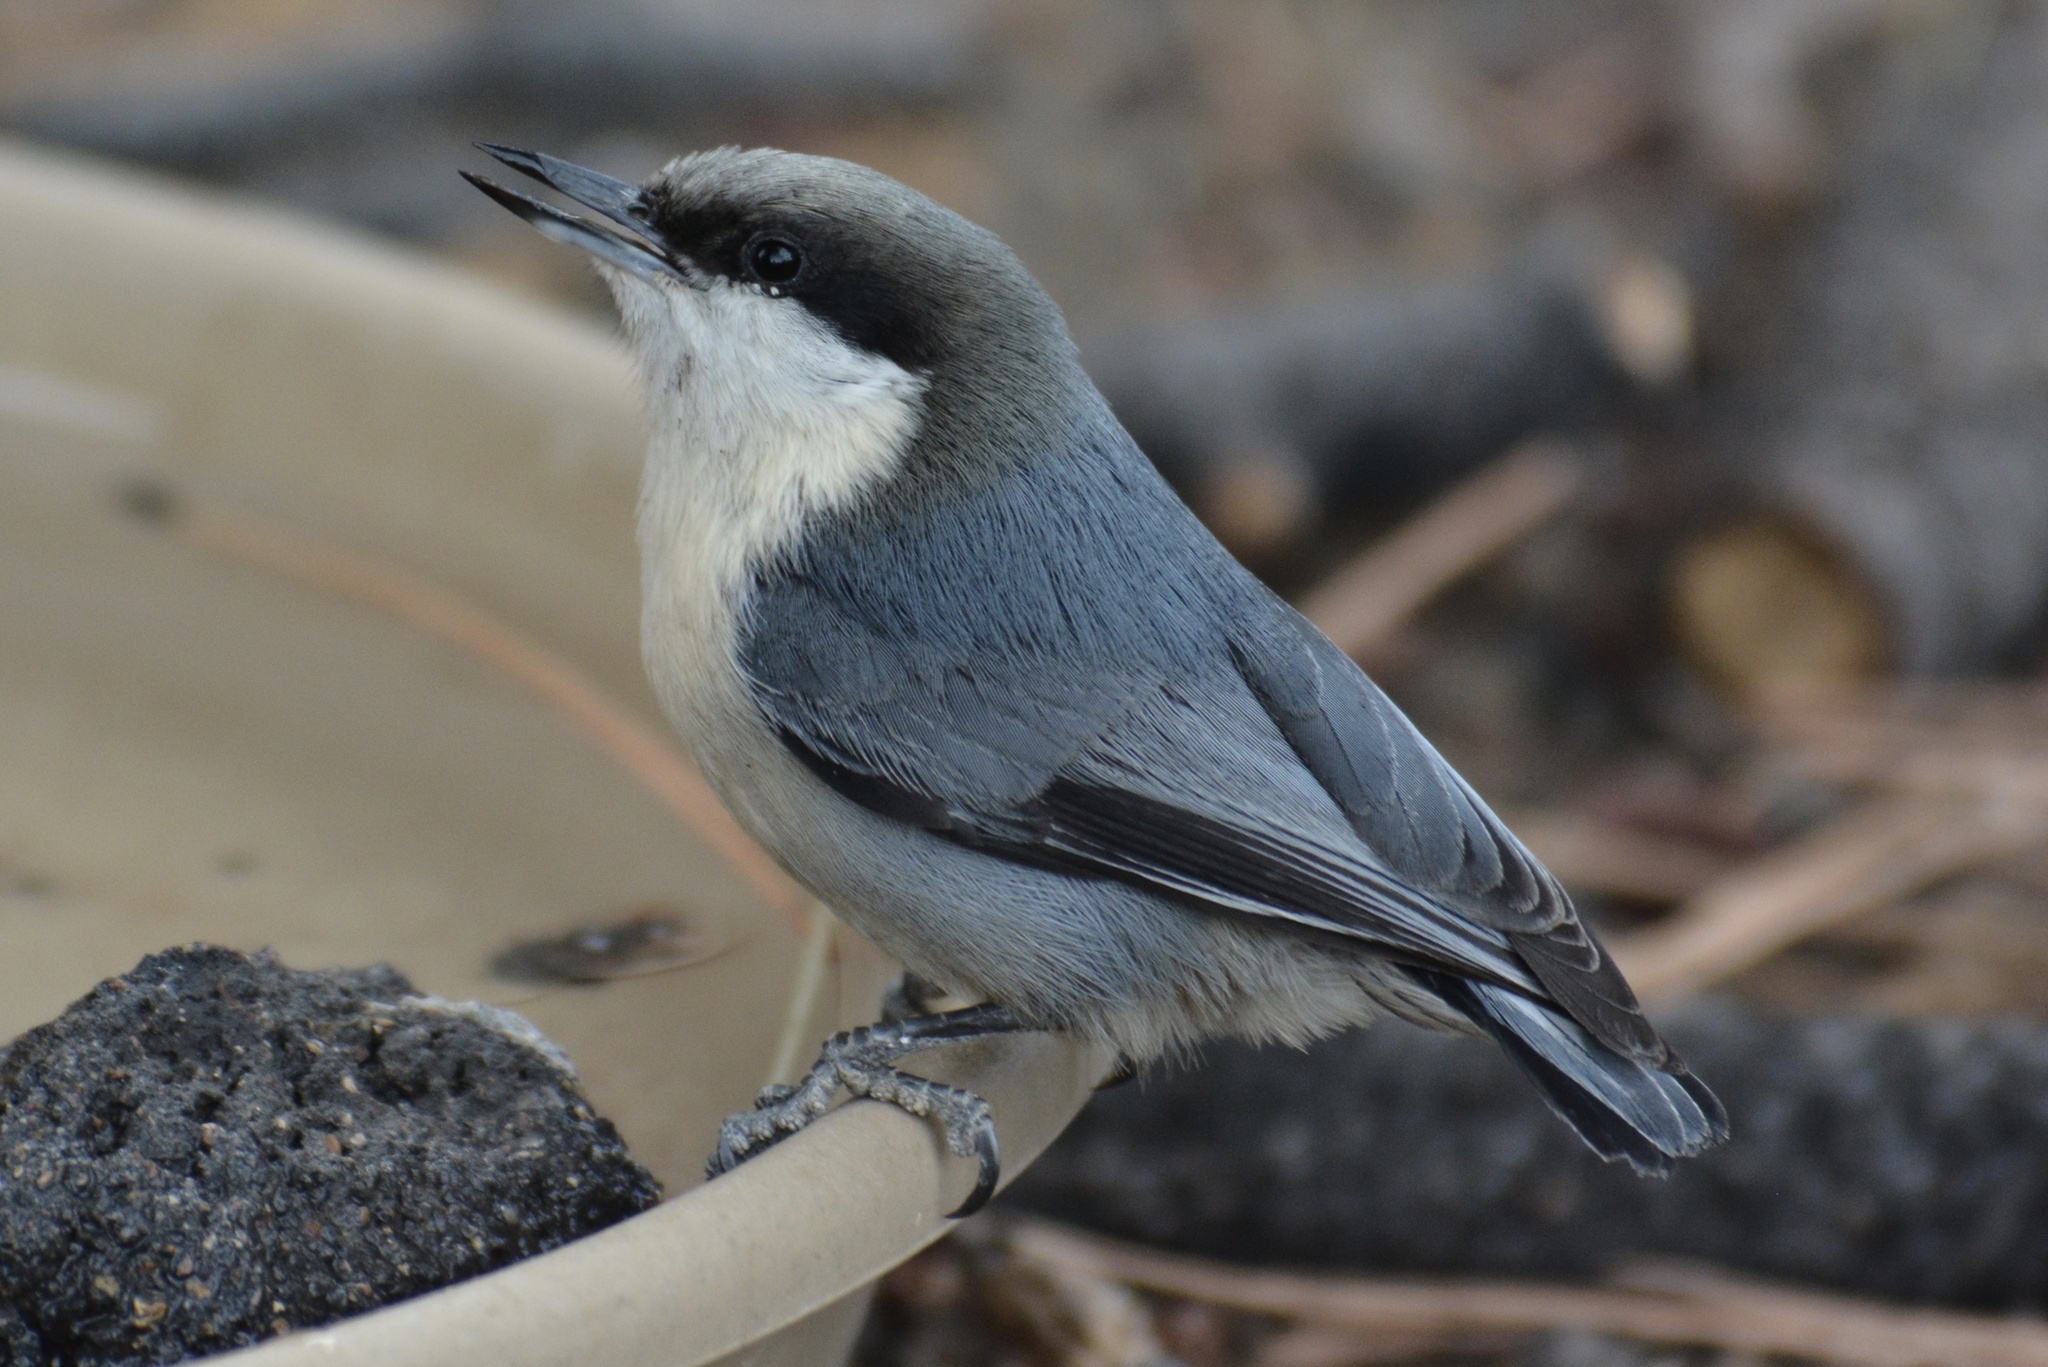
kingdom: Animalia
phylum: Chordata
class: Aves
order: Passeriformes
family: Sittidae
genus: Sitta
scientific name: Sitta pygmaea
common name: Pygmy nuthatch
